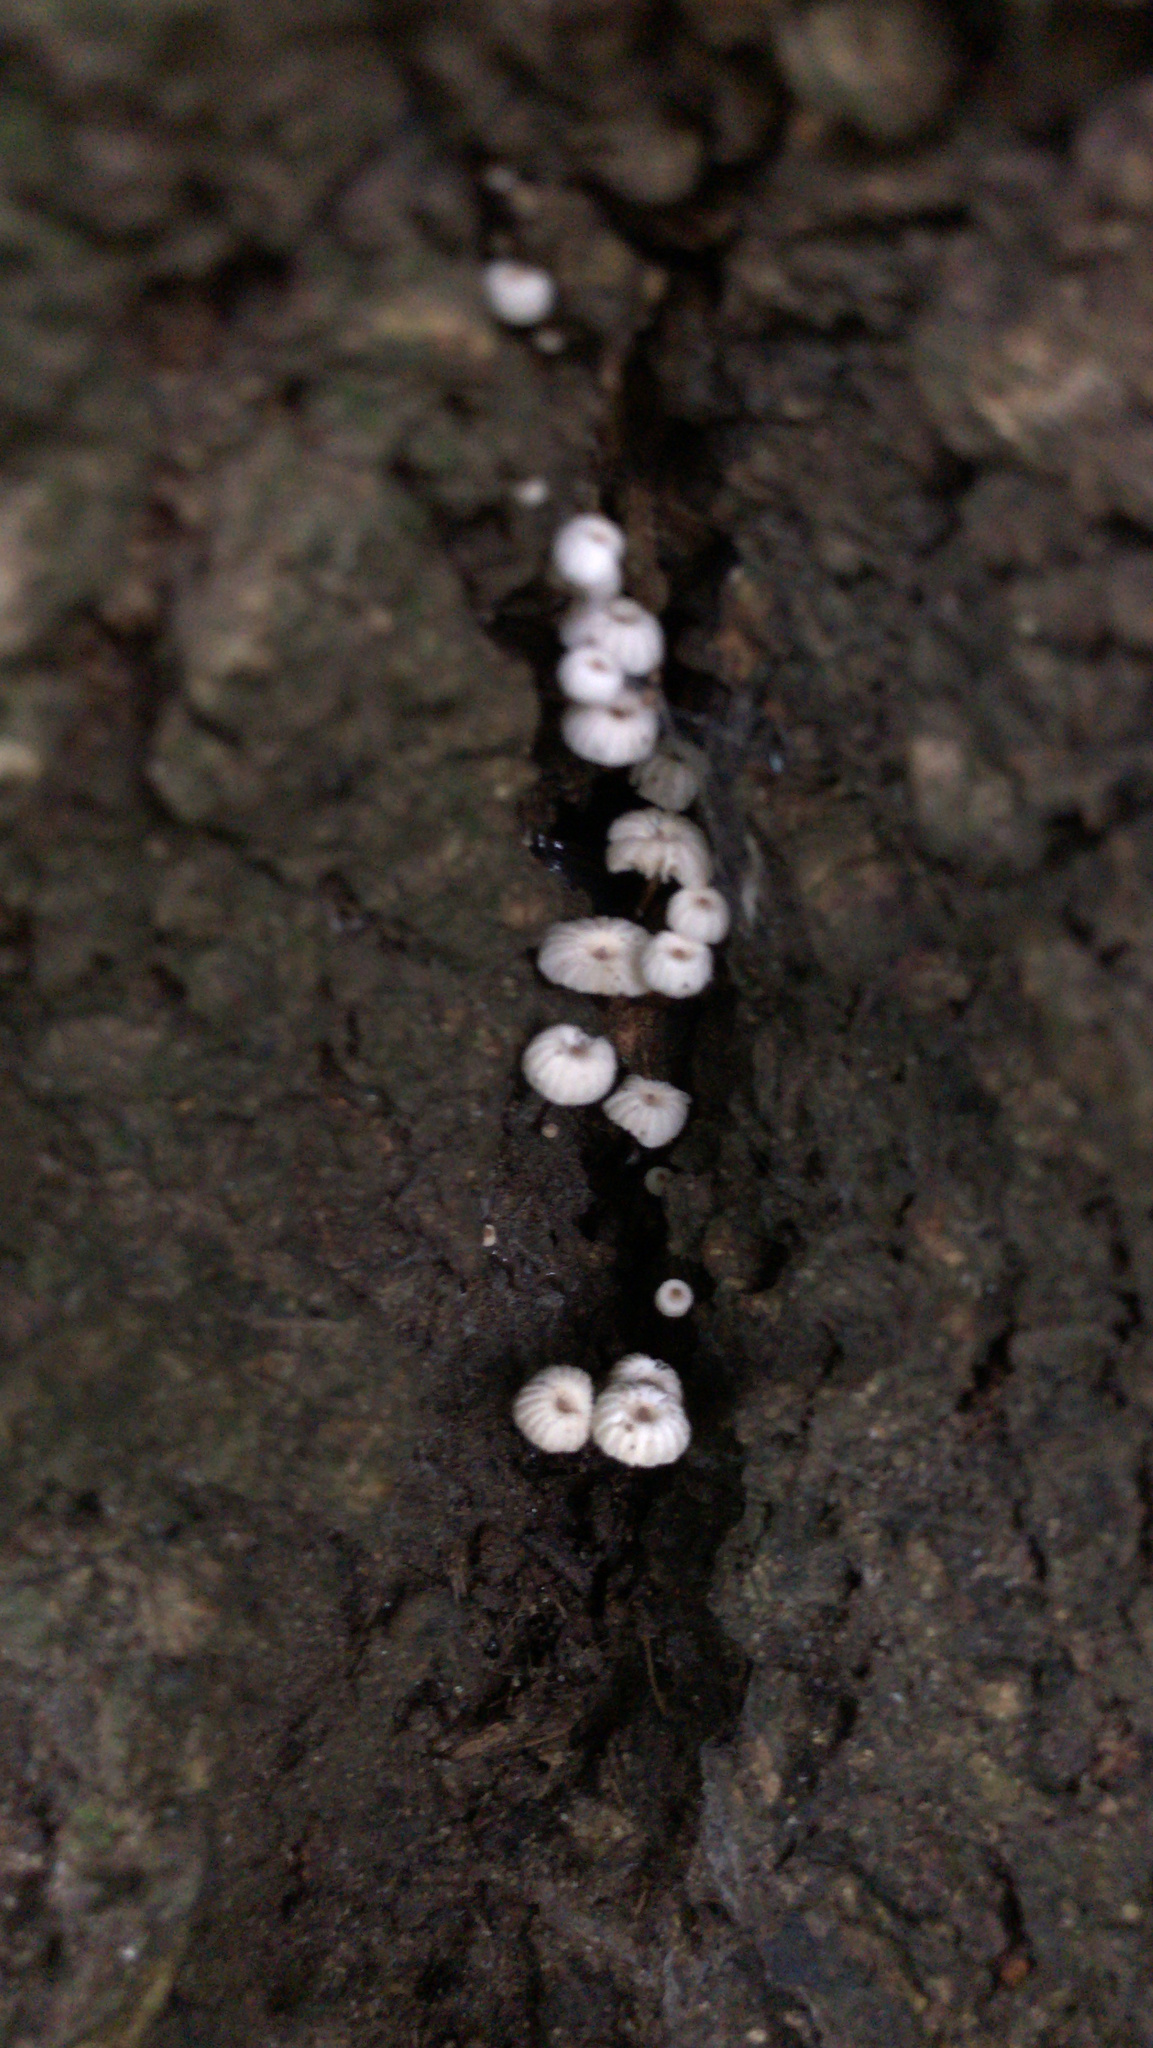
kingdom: Fungi
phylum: Basidiomycota
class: Agaricomycetes
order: Agaricales
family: Marasmiaceae
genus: Marasmius
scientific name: Marasmius rotula
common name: Collared parachute
